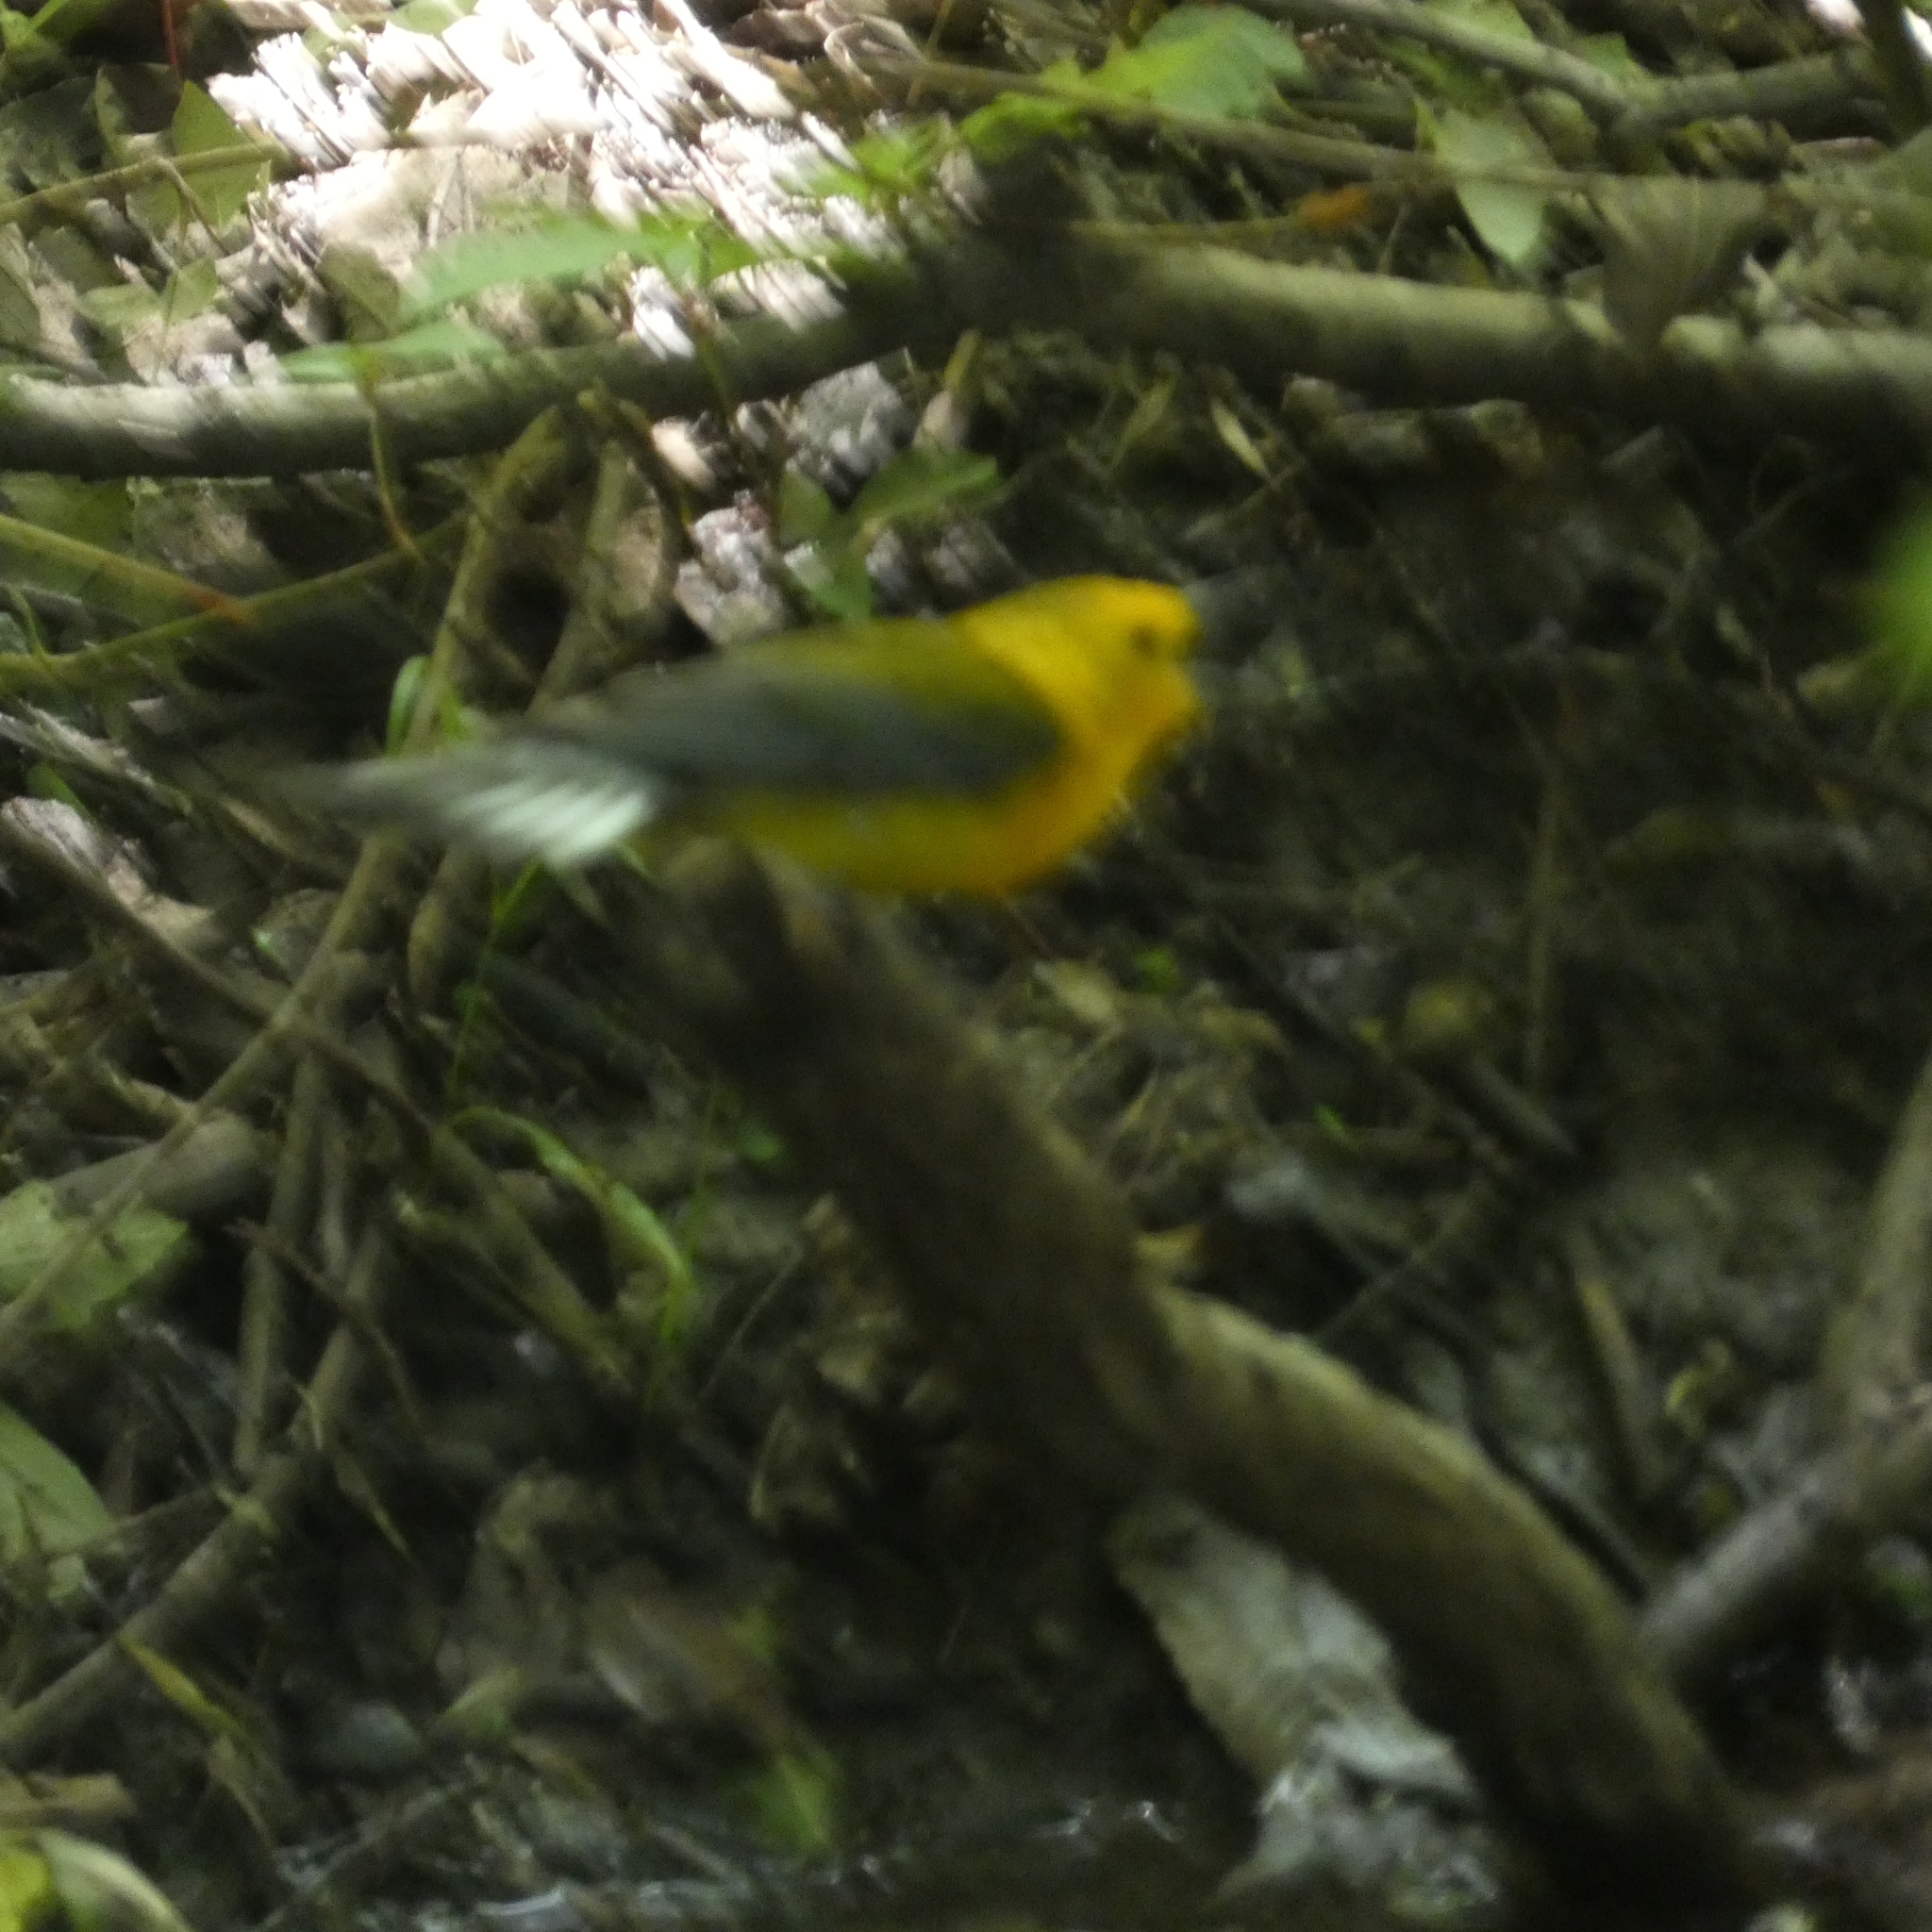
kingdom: Animalia
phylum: Chordata
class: Aves
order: Passeriformes
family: Parulidae
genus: Protonotaria
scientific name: Protonotaria citrea
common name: Prothonotary warbler
